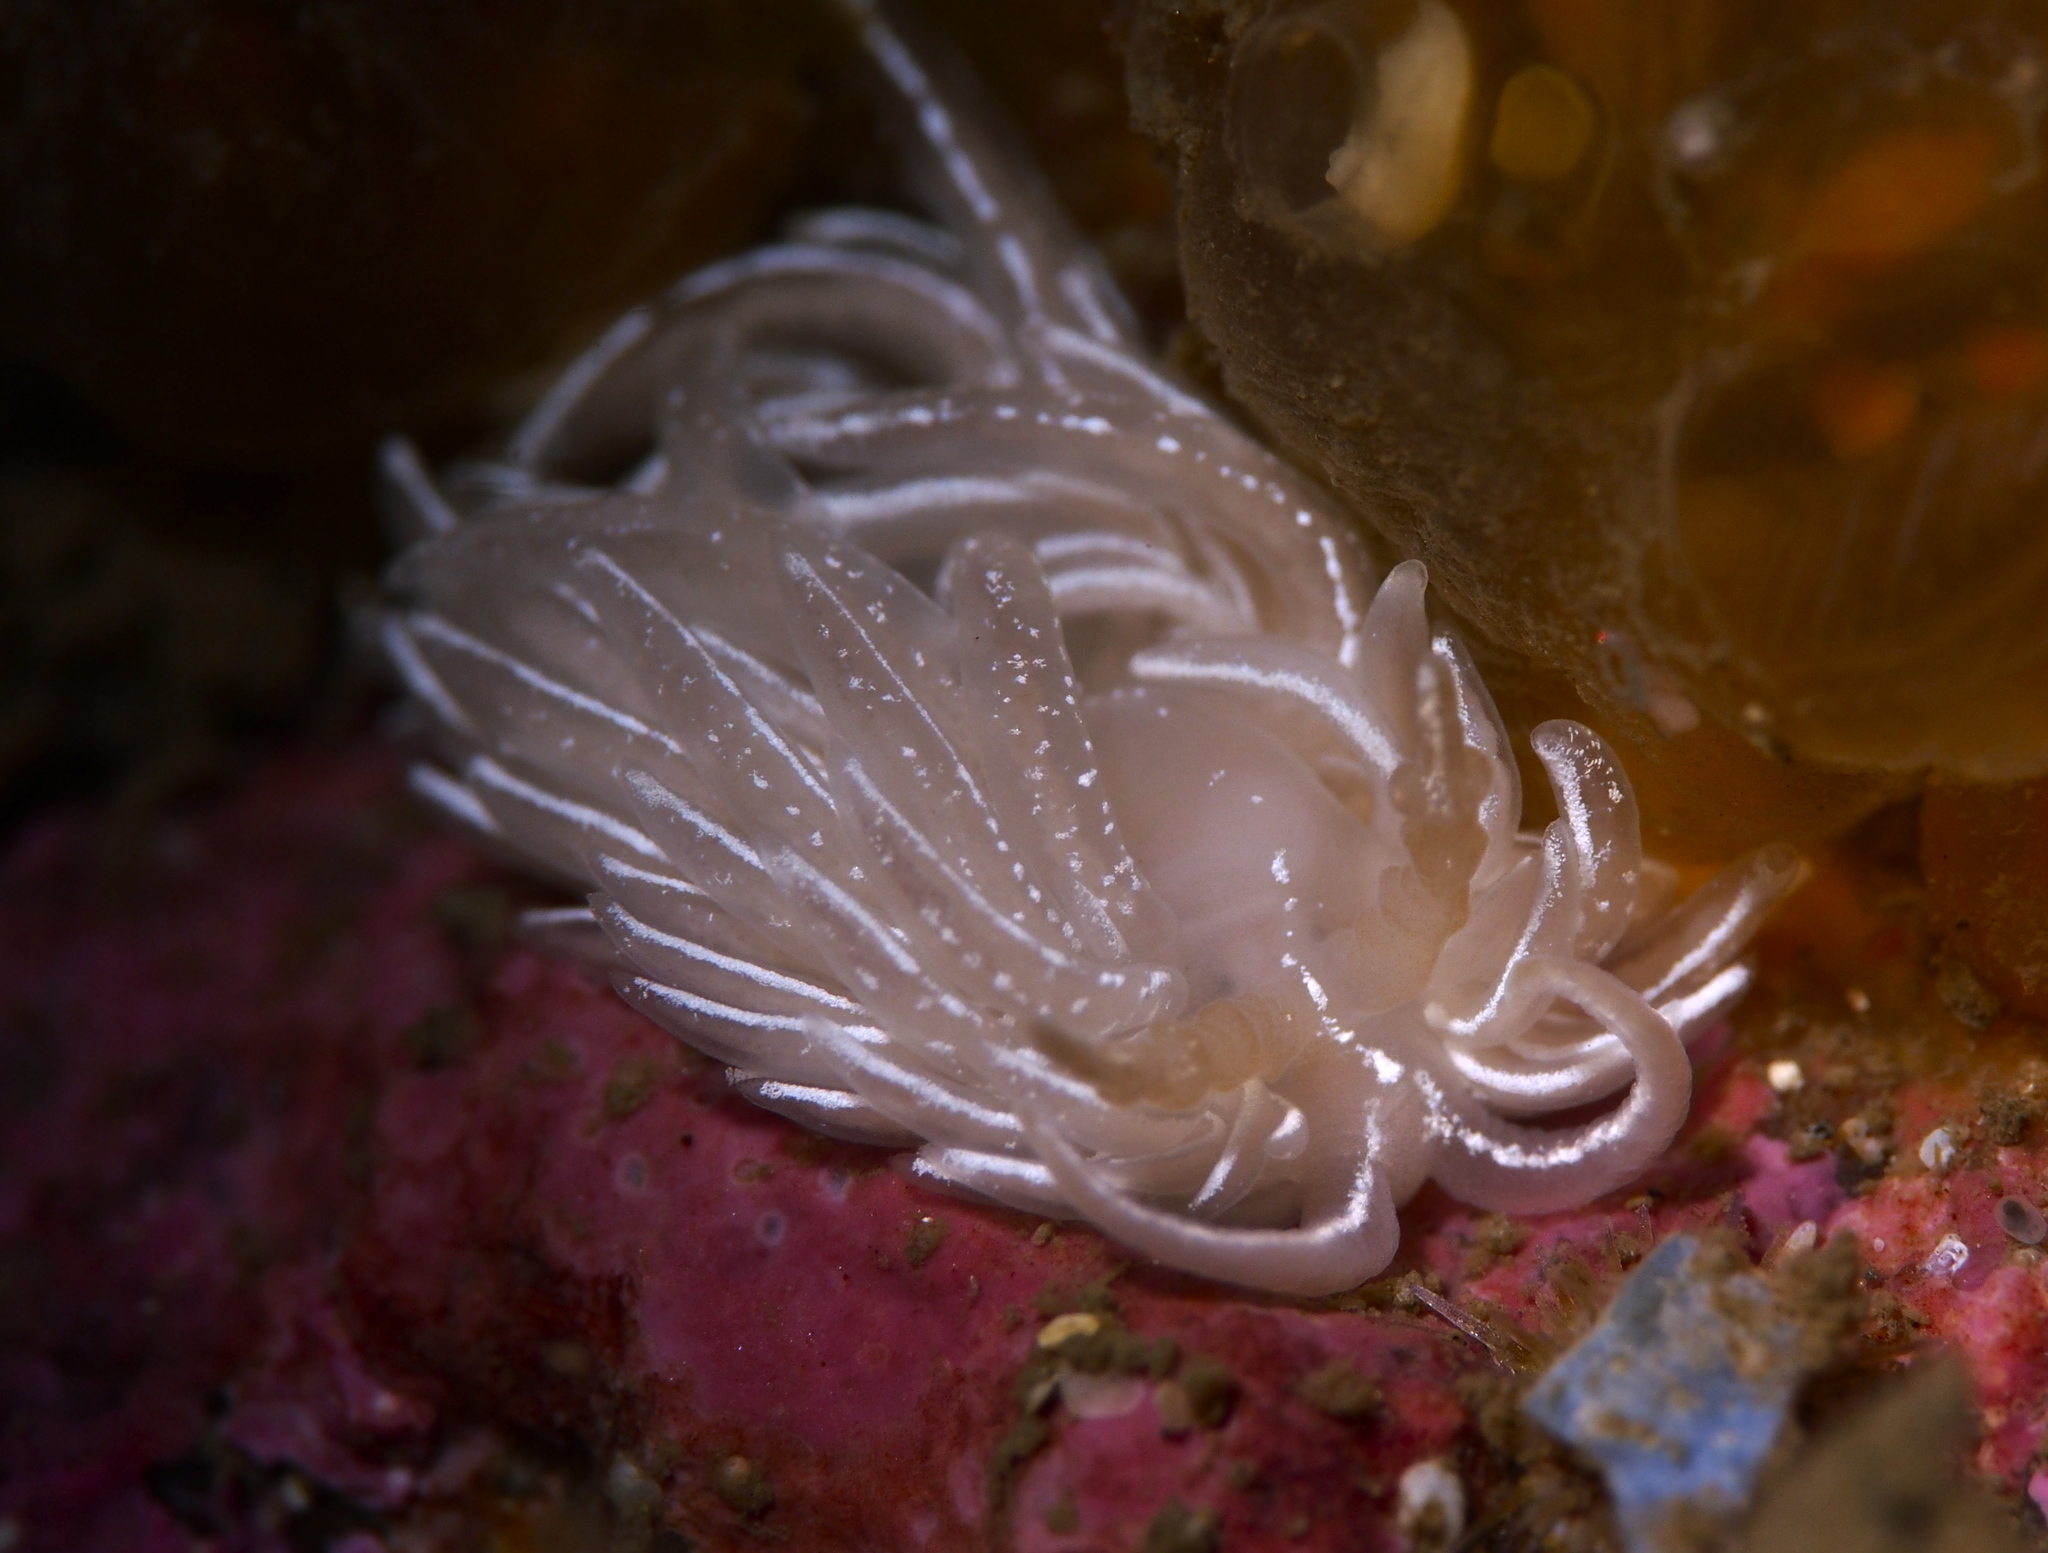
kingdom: Animalia
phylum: Mollusca
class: Gastropoda
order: Nudibranchia
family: Facelinidae
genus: Favorinus
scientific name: Favorinus blianus
